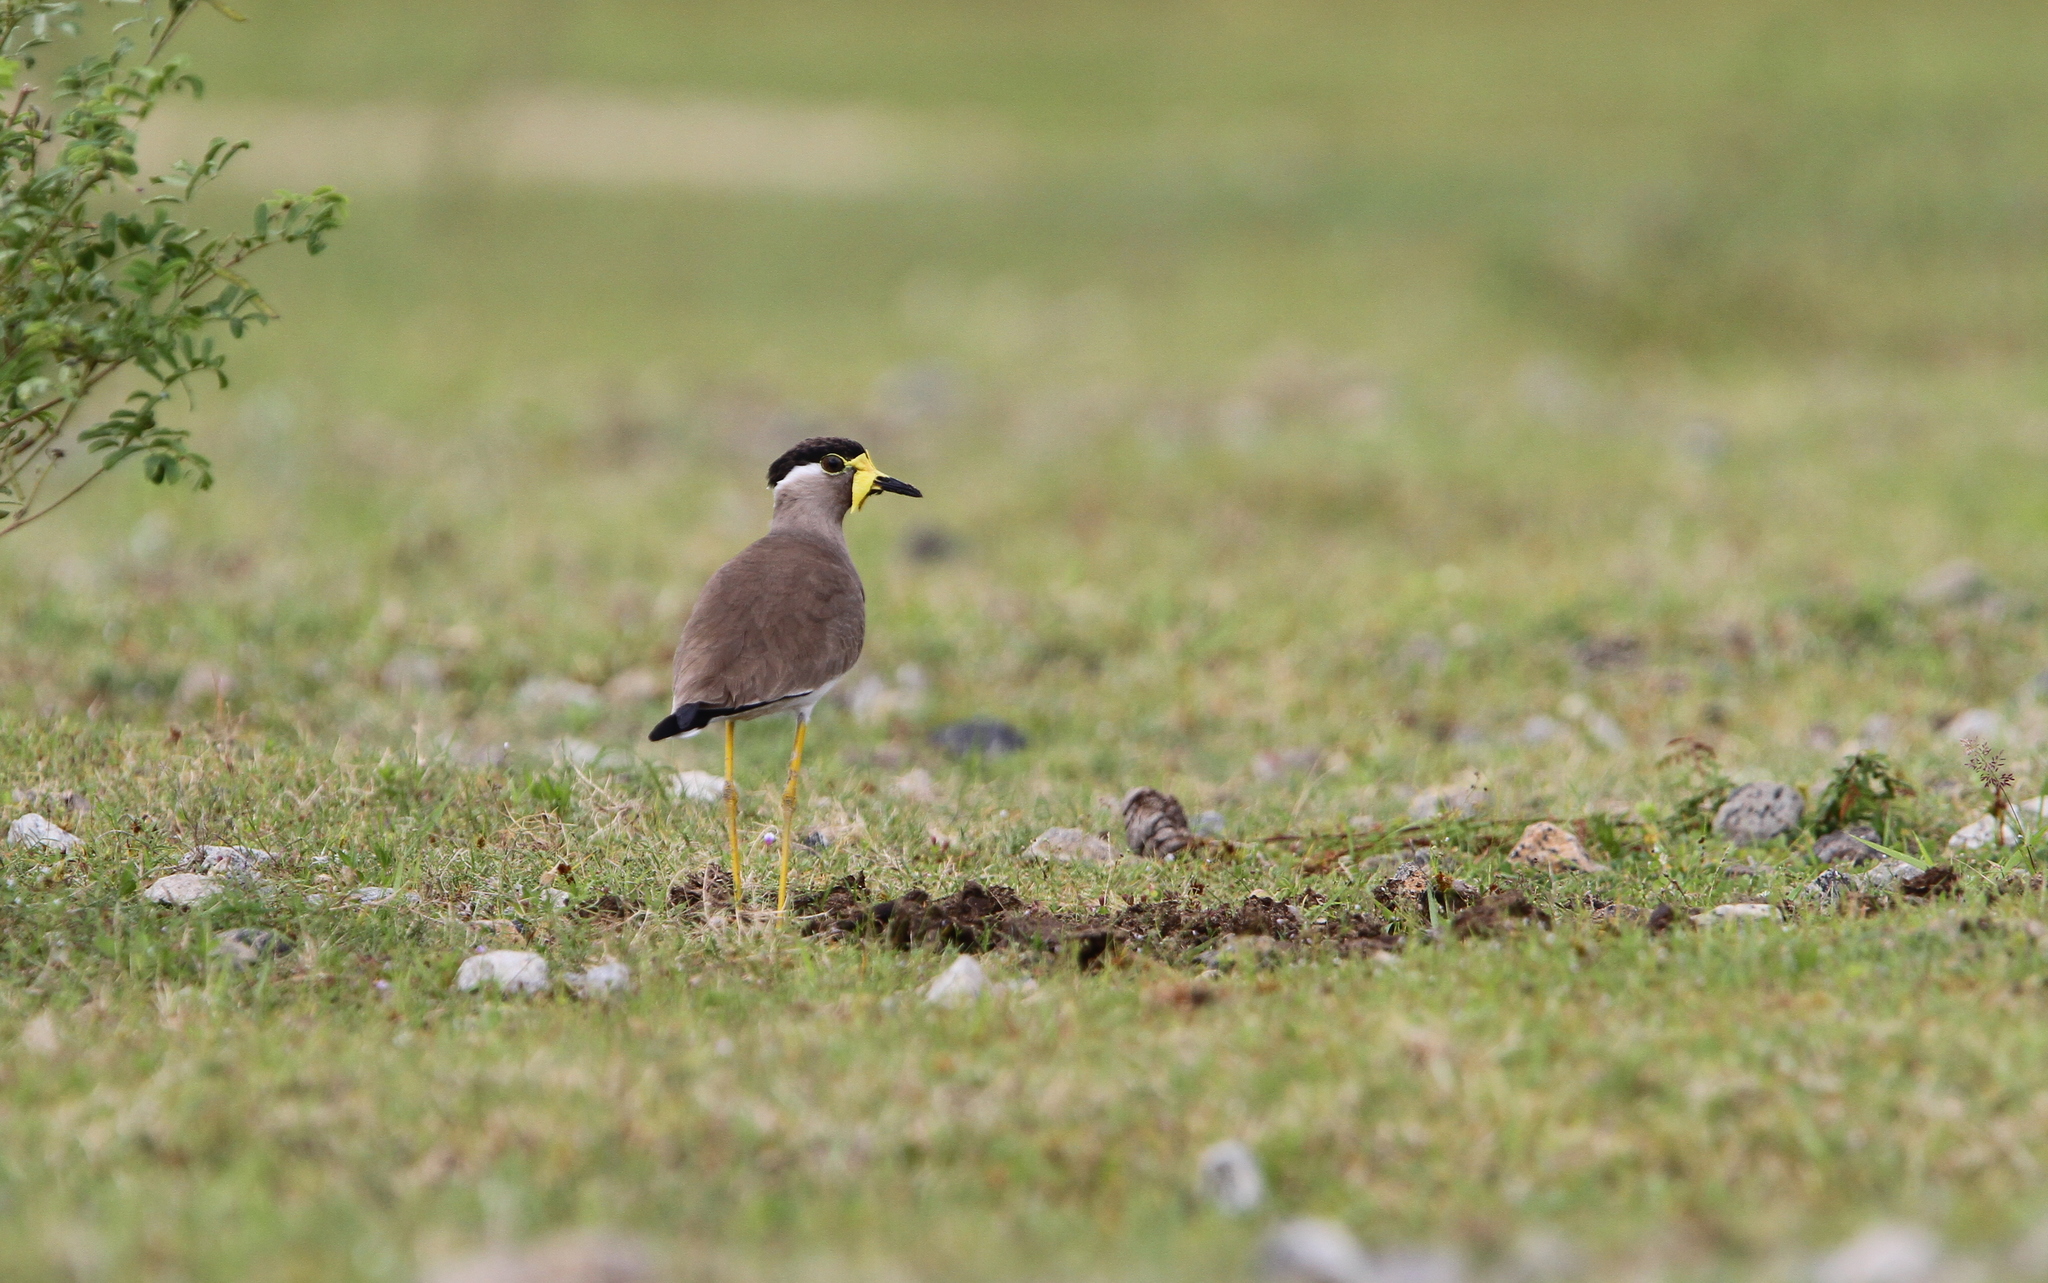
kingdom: Animalia
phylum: Chordata
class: Aves
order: Charadriiformes
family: Charadriidae
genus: Vanellus
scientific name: Vanellus malabaricus
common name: Yellow-wattled lapwing
